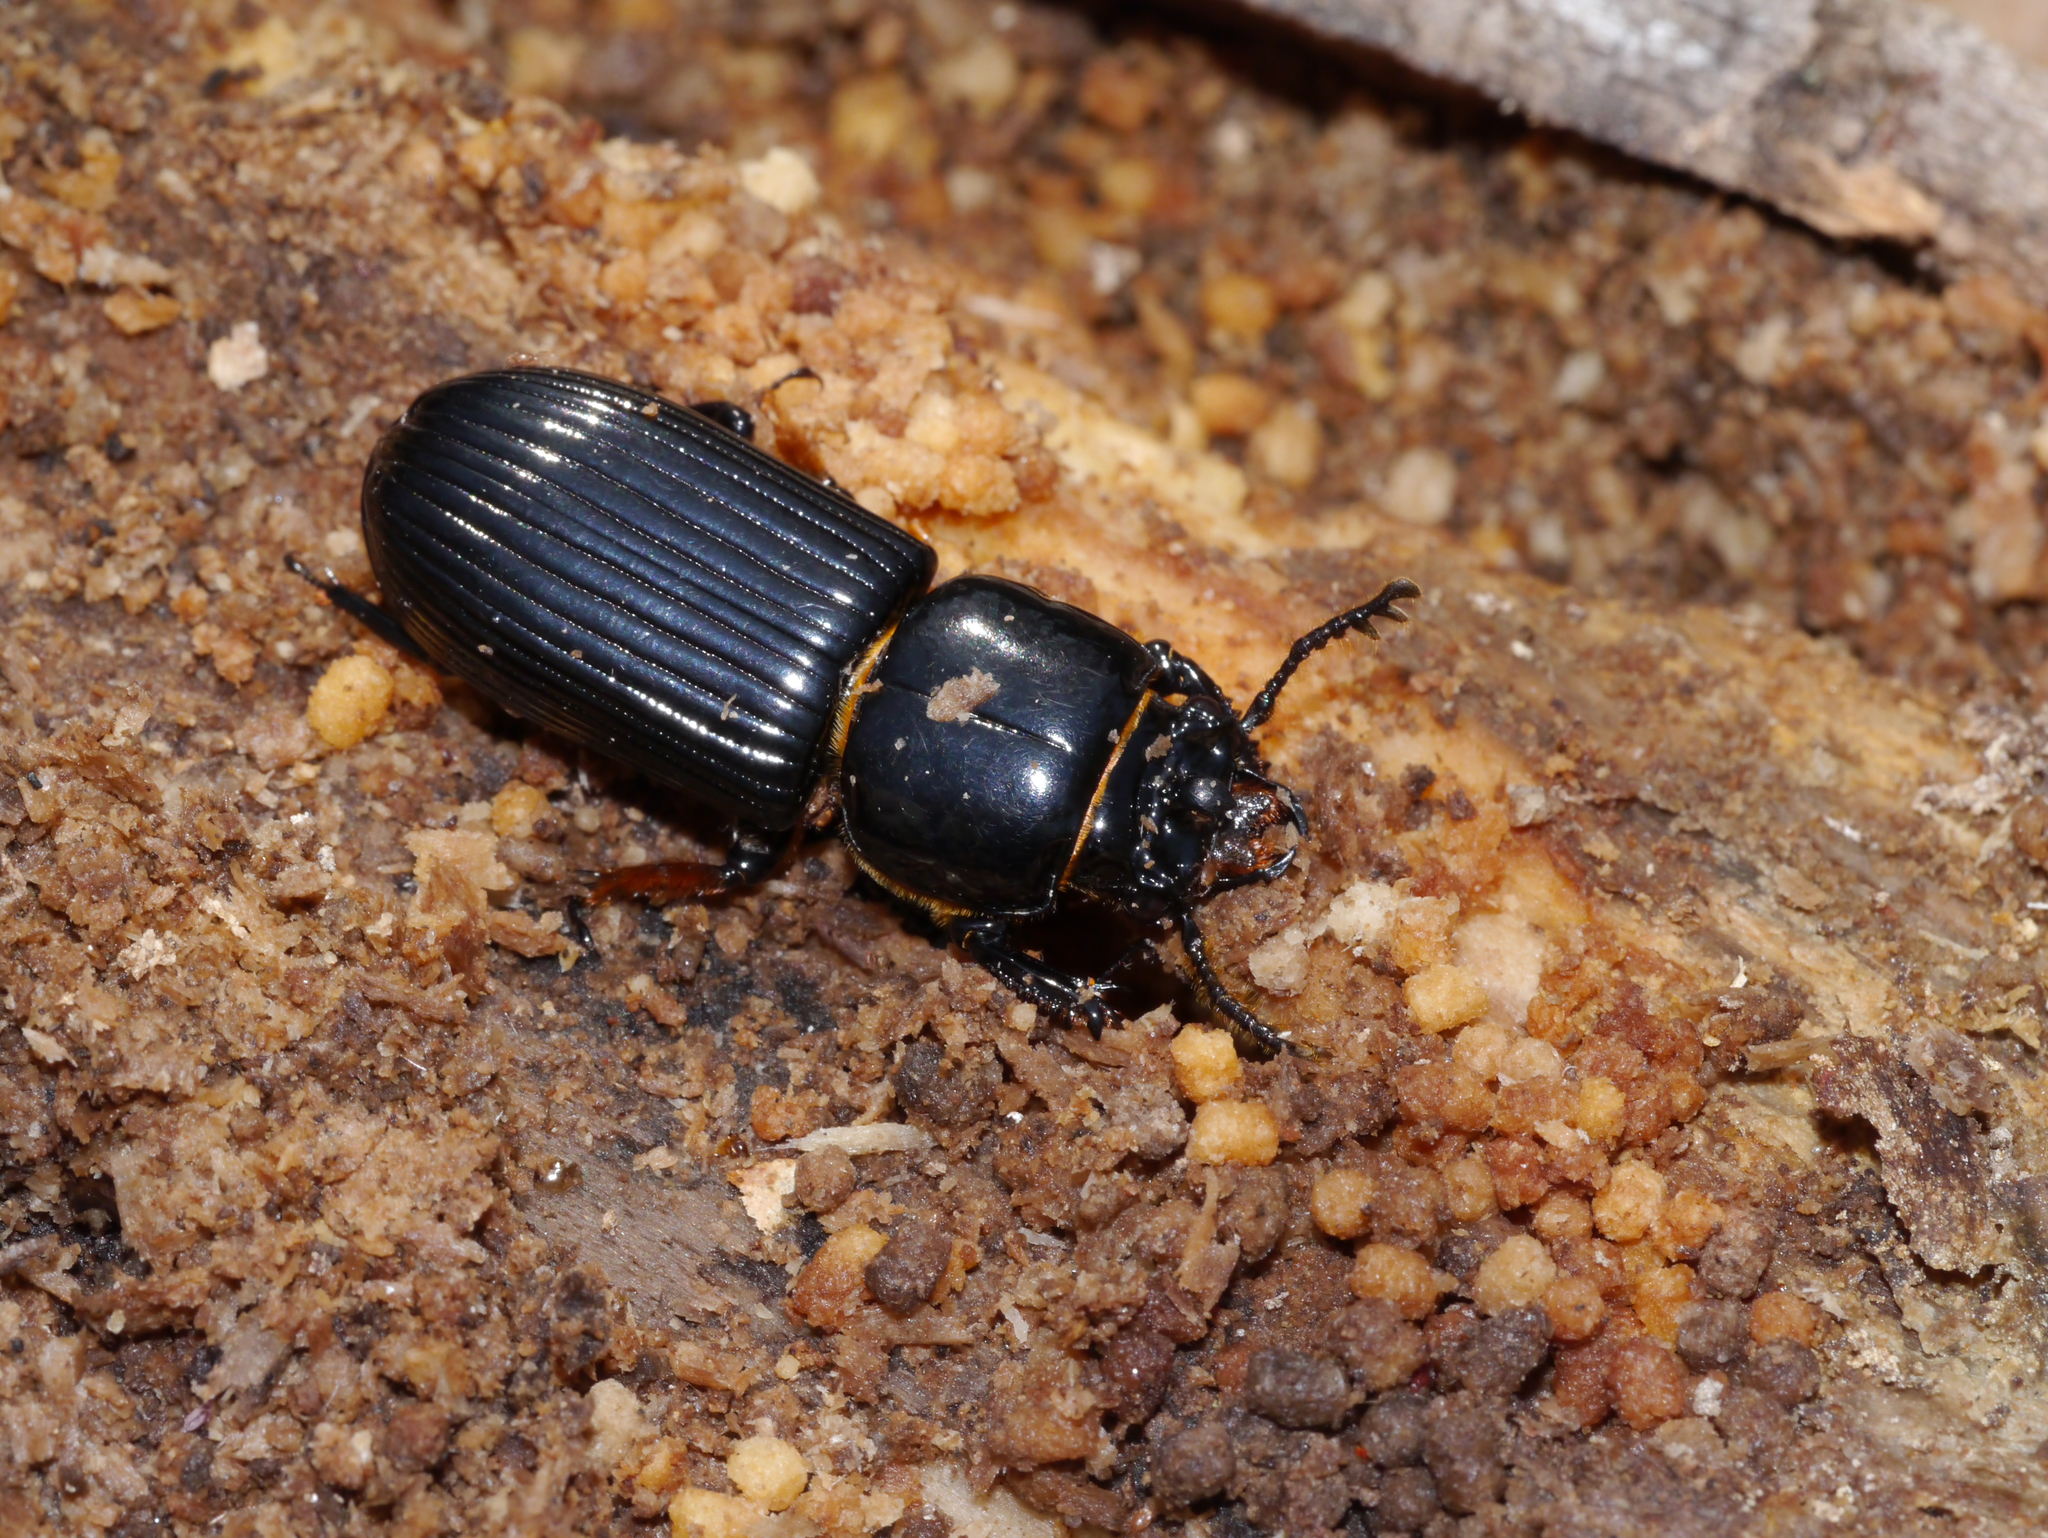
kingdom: Animalia
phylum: Arthropoda
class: Insecta
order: Coleoptera
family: Passalidae
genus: Odontotaenius
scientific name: Odontotaenius disjunctus
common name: Patent leather beetle
